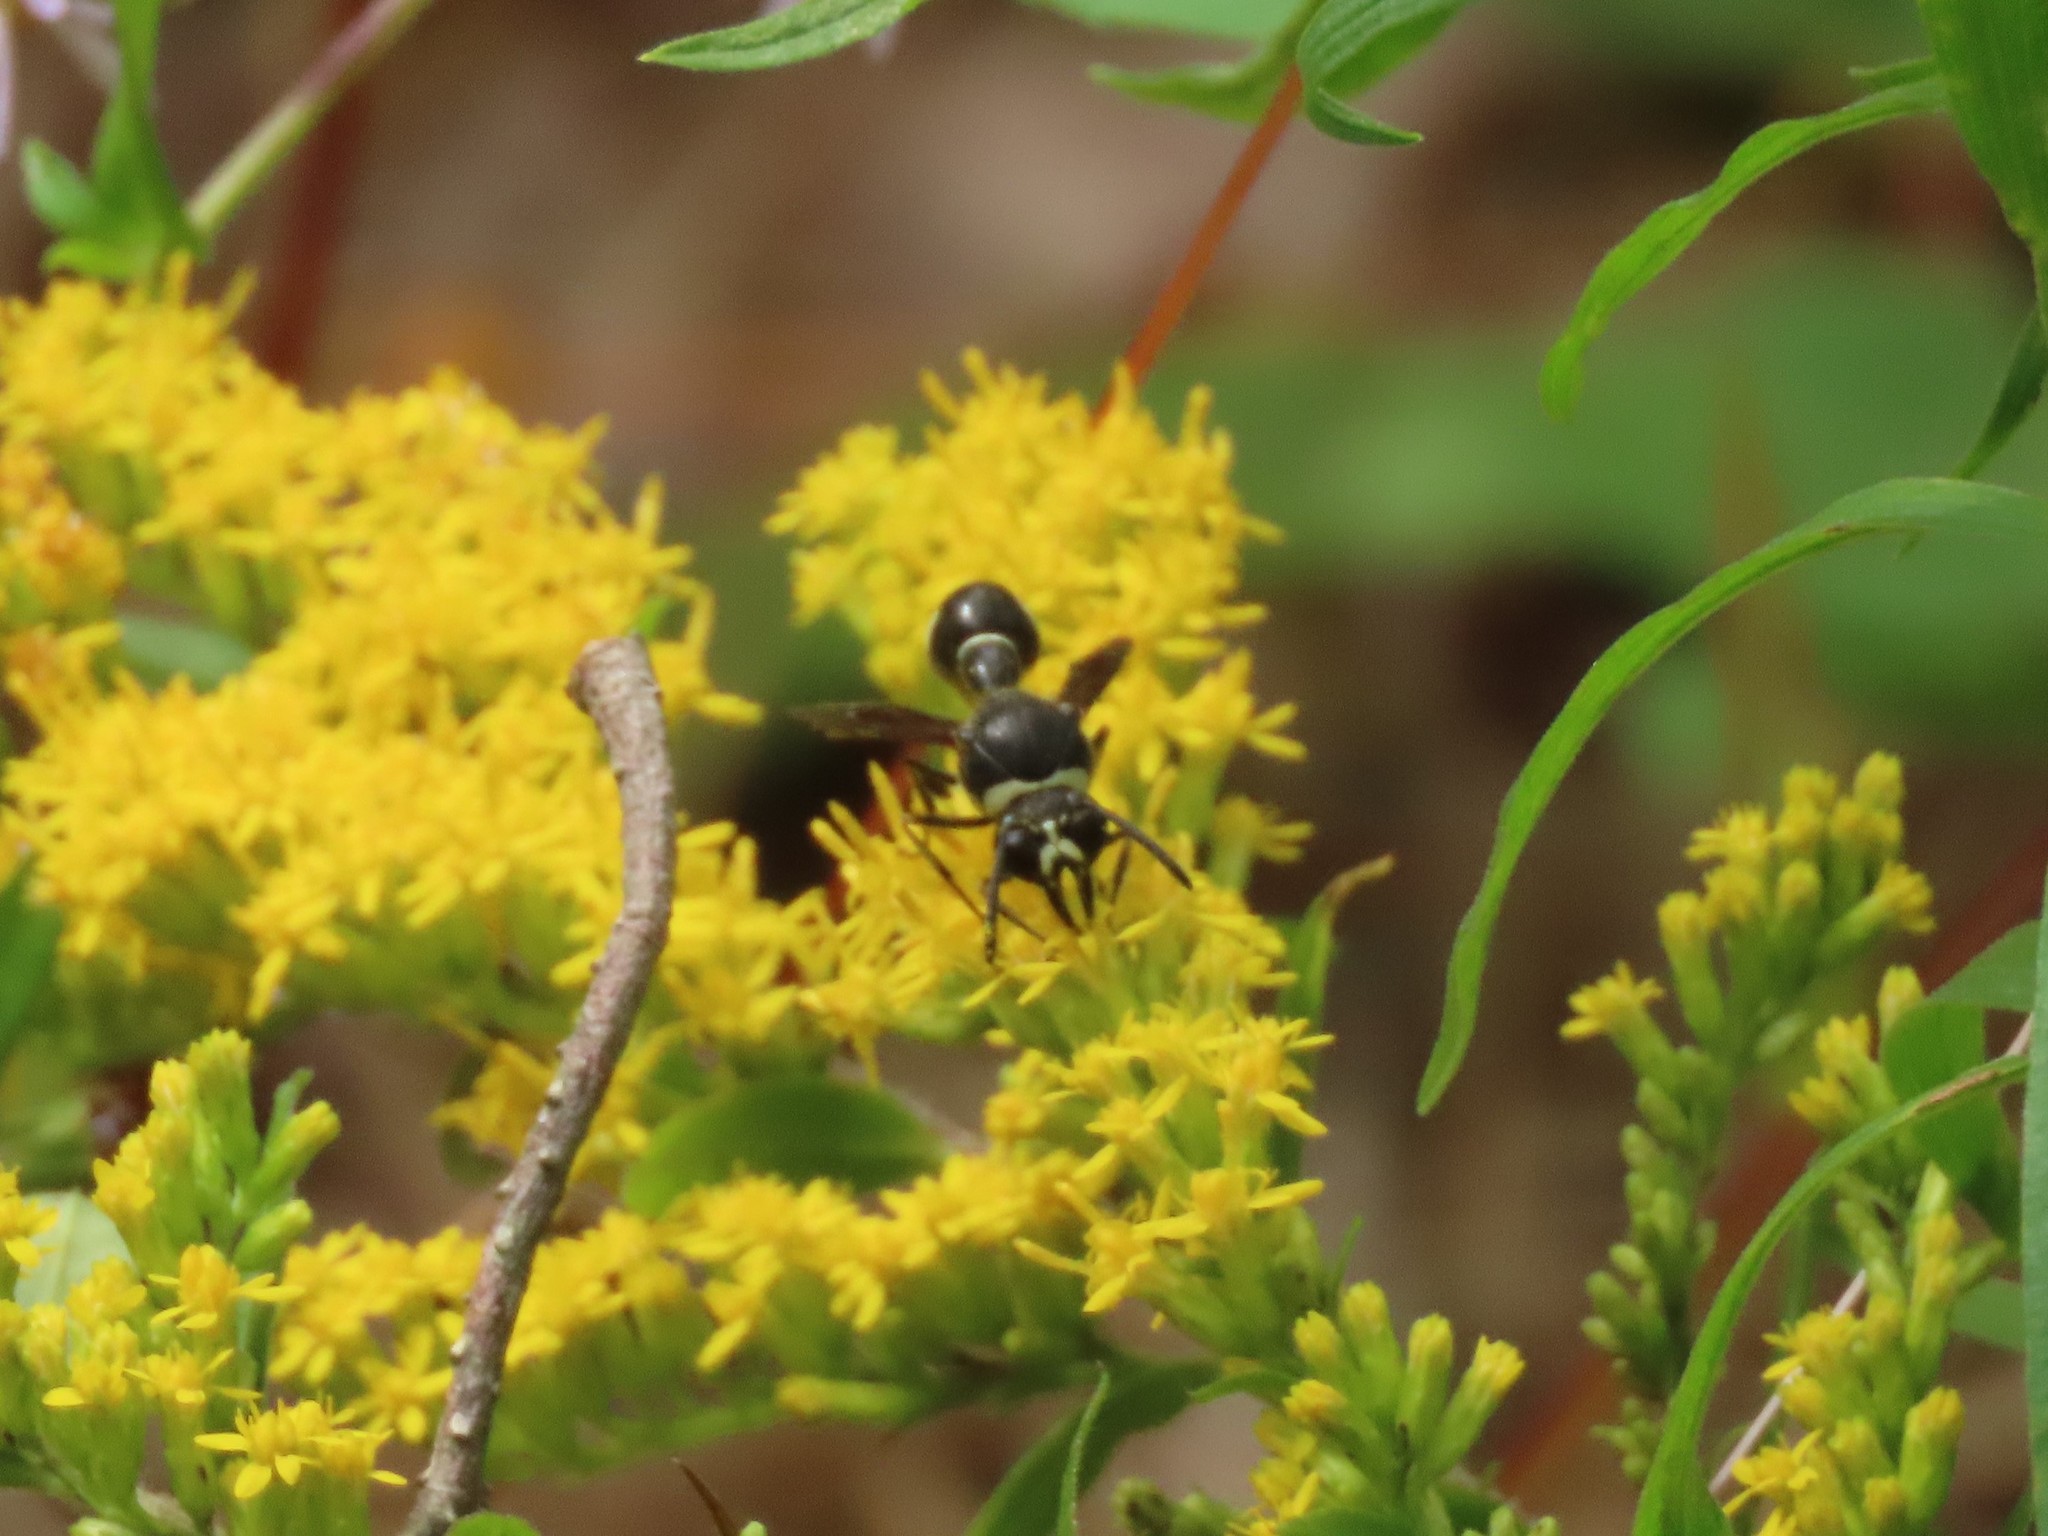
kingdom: Animalia
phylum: Arthropoda
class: Insecta
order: Hymenoptera
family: Vespidae
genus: Eumenes
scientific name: Eumenes fraternus
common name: Fraternal potter wasp
